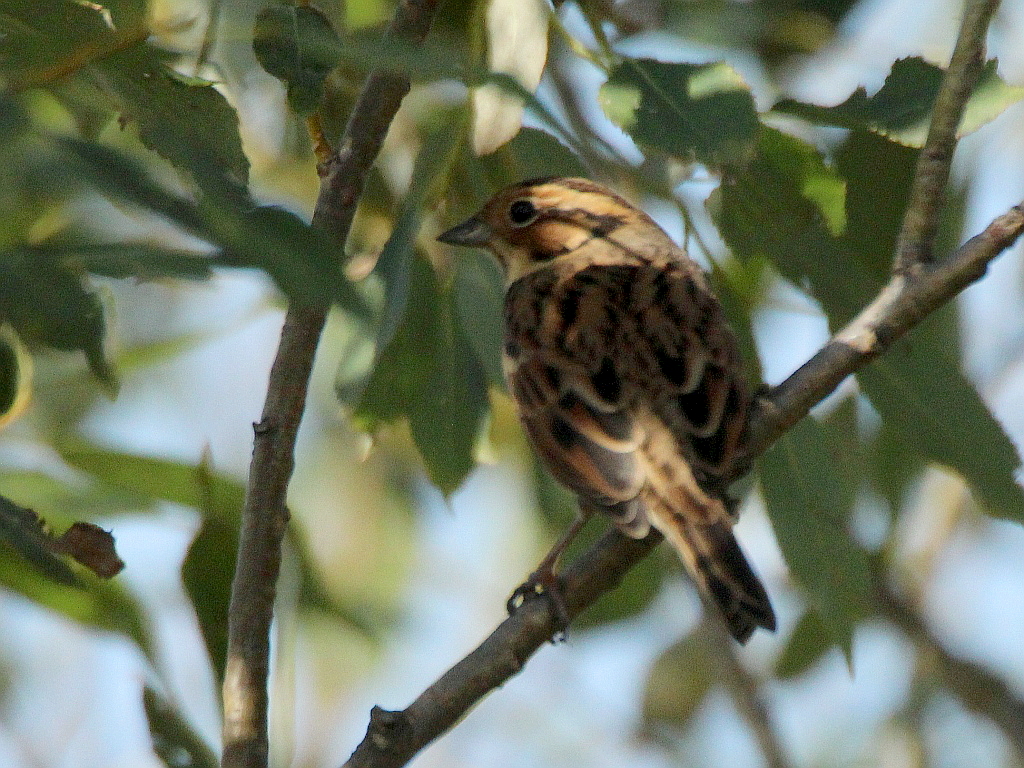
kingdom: Animalia
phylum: Chordata
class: Aves
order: Passeriformes
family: Emberizidae
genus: Emberiza
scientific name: Emberiza pusilla
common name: Little bunting
